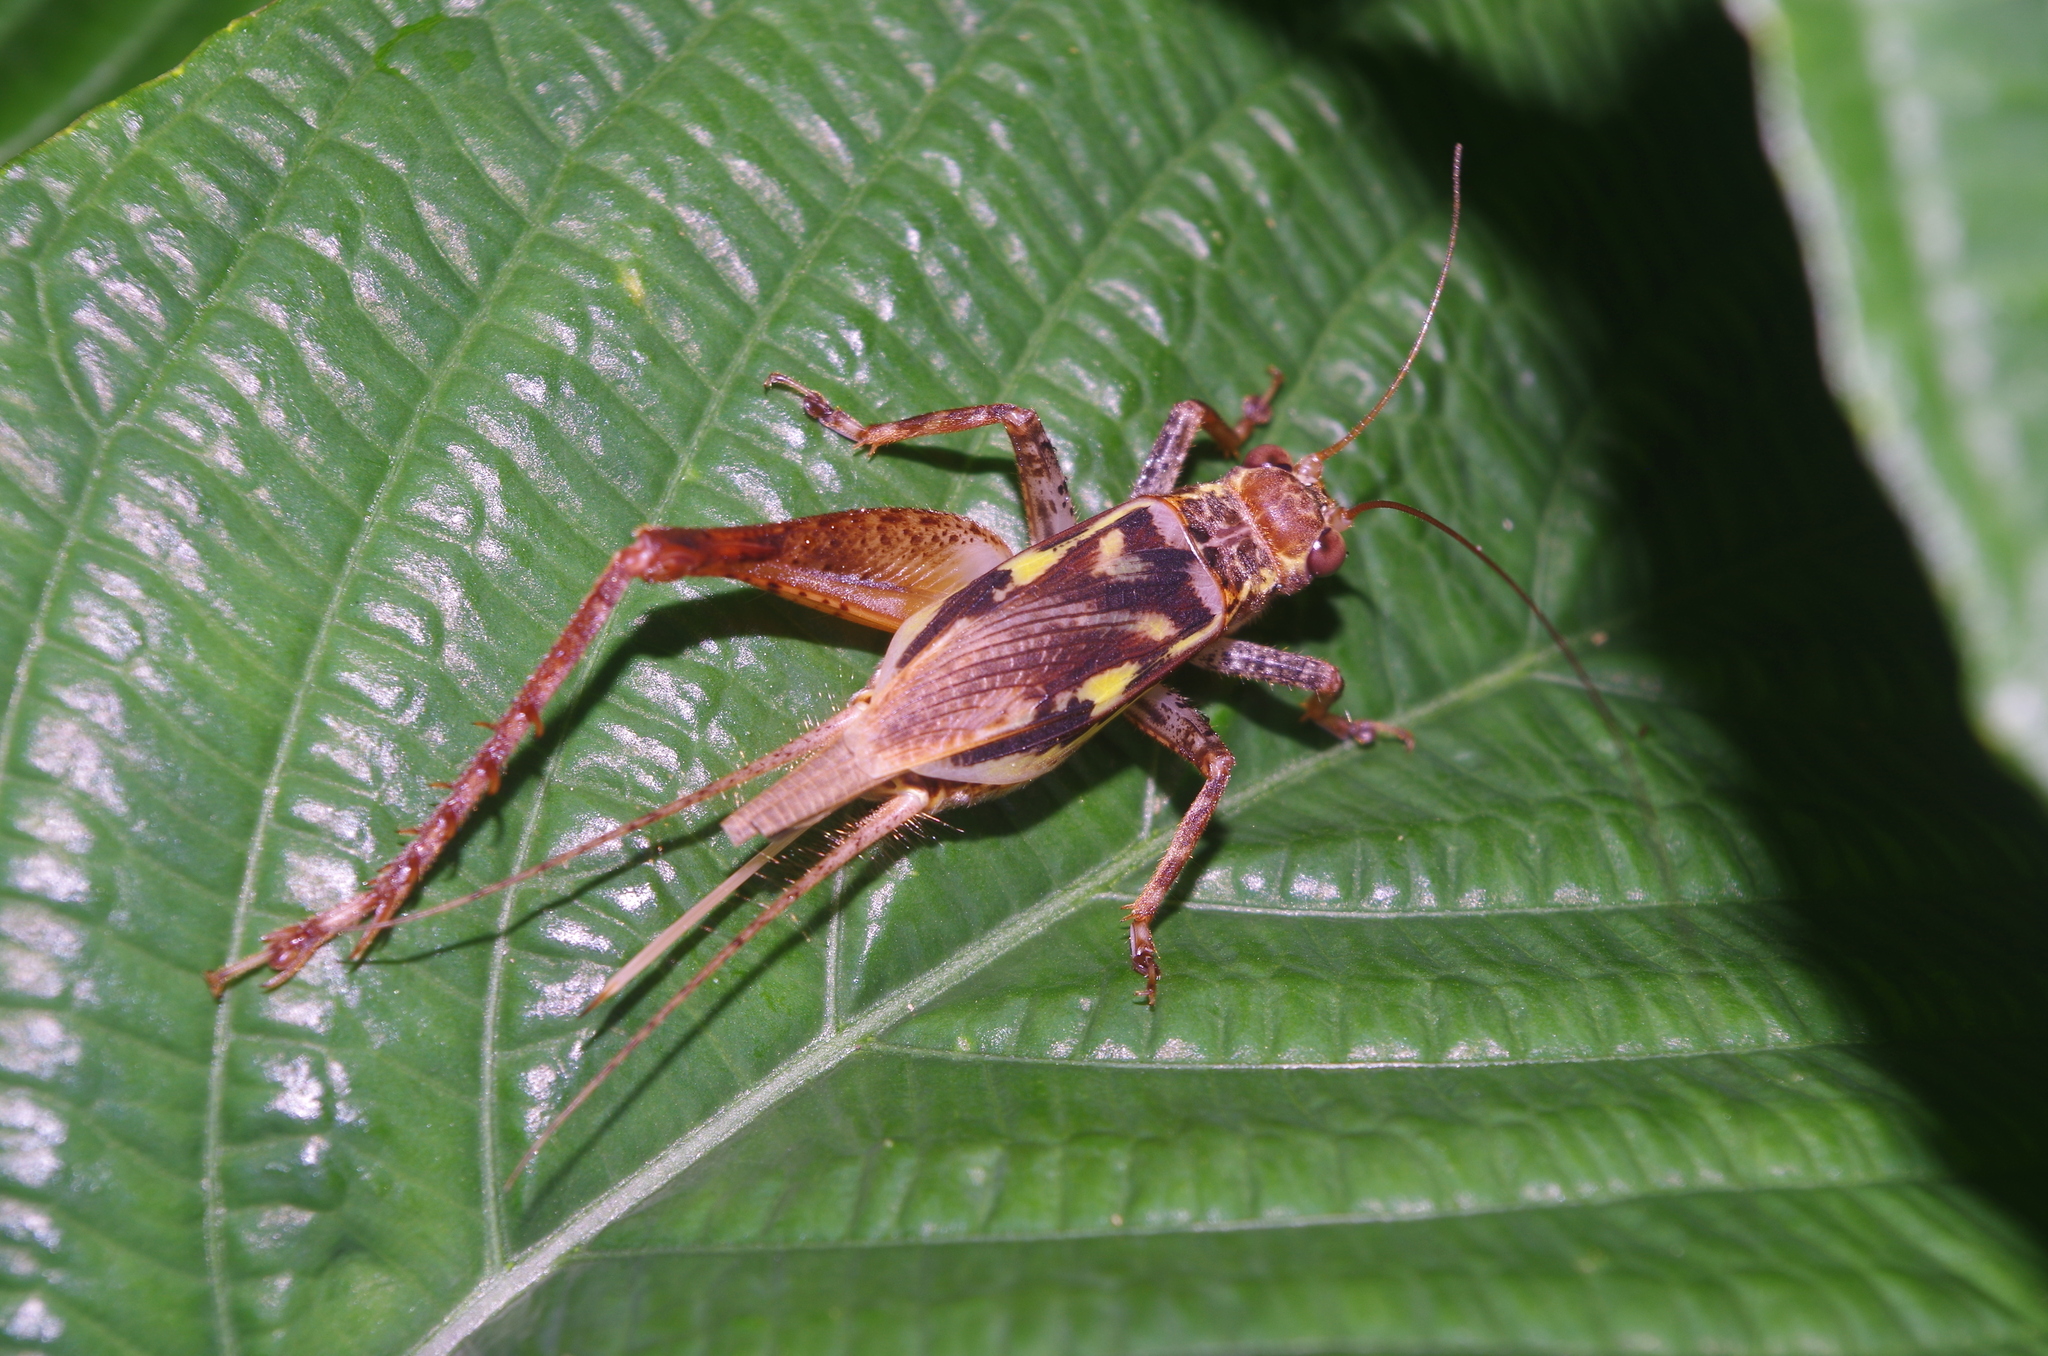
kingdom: Animalia
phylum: Arthropoda
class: Insecta
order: Orthoptera
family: Gryllidae
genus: Cardiodactylus
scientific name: Cardiodactylus guttulus
